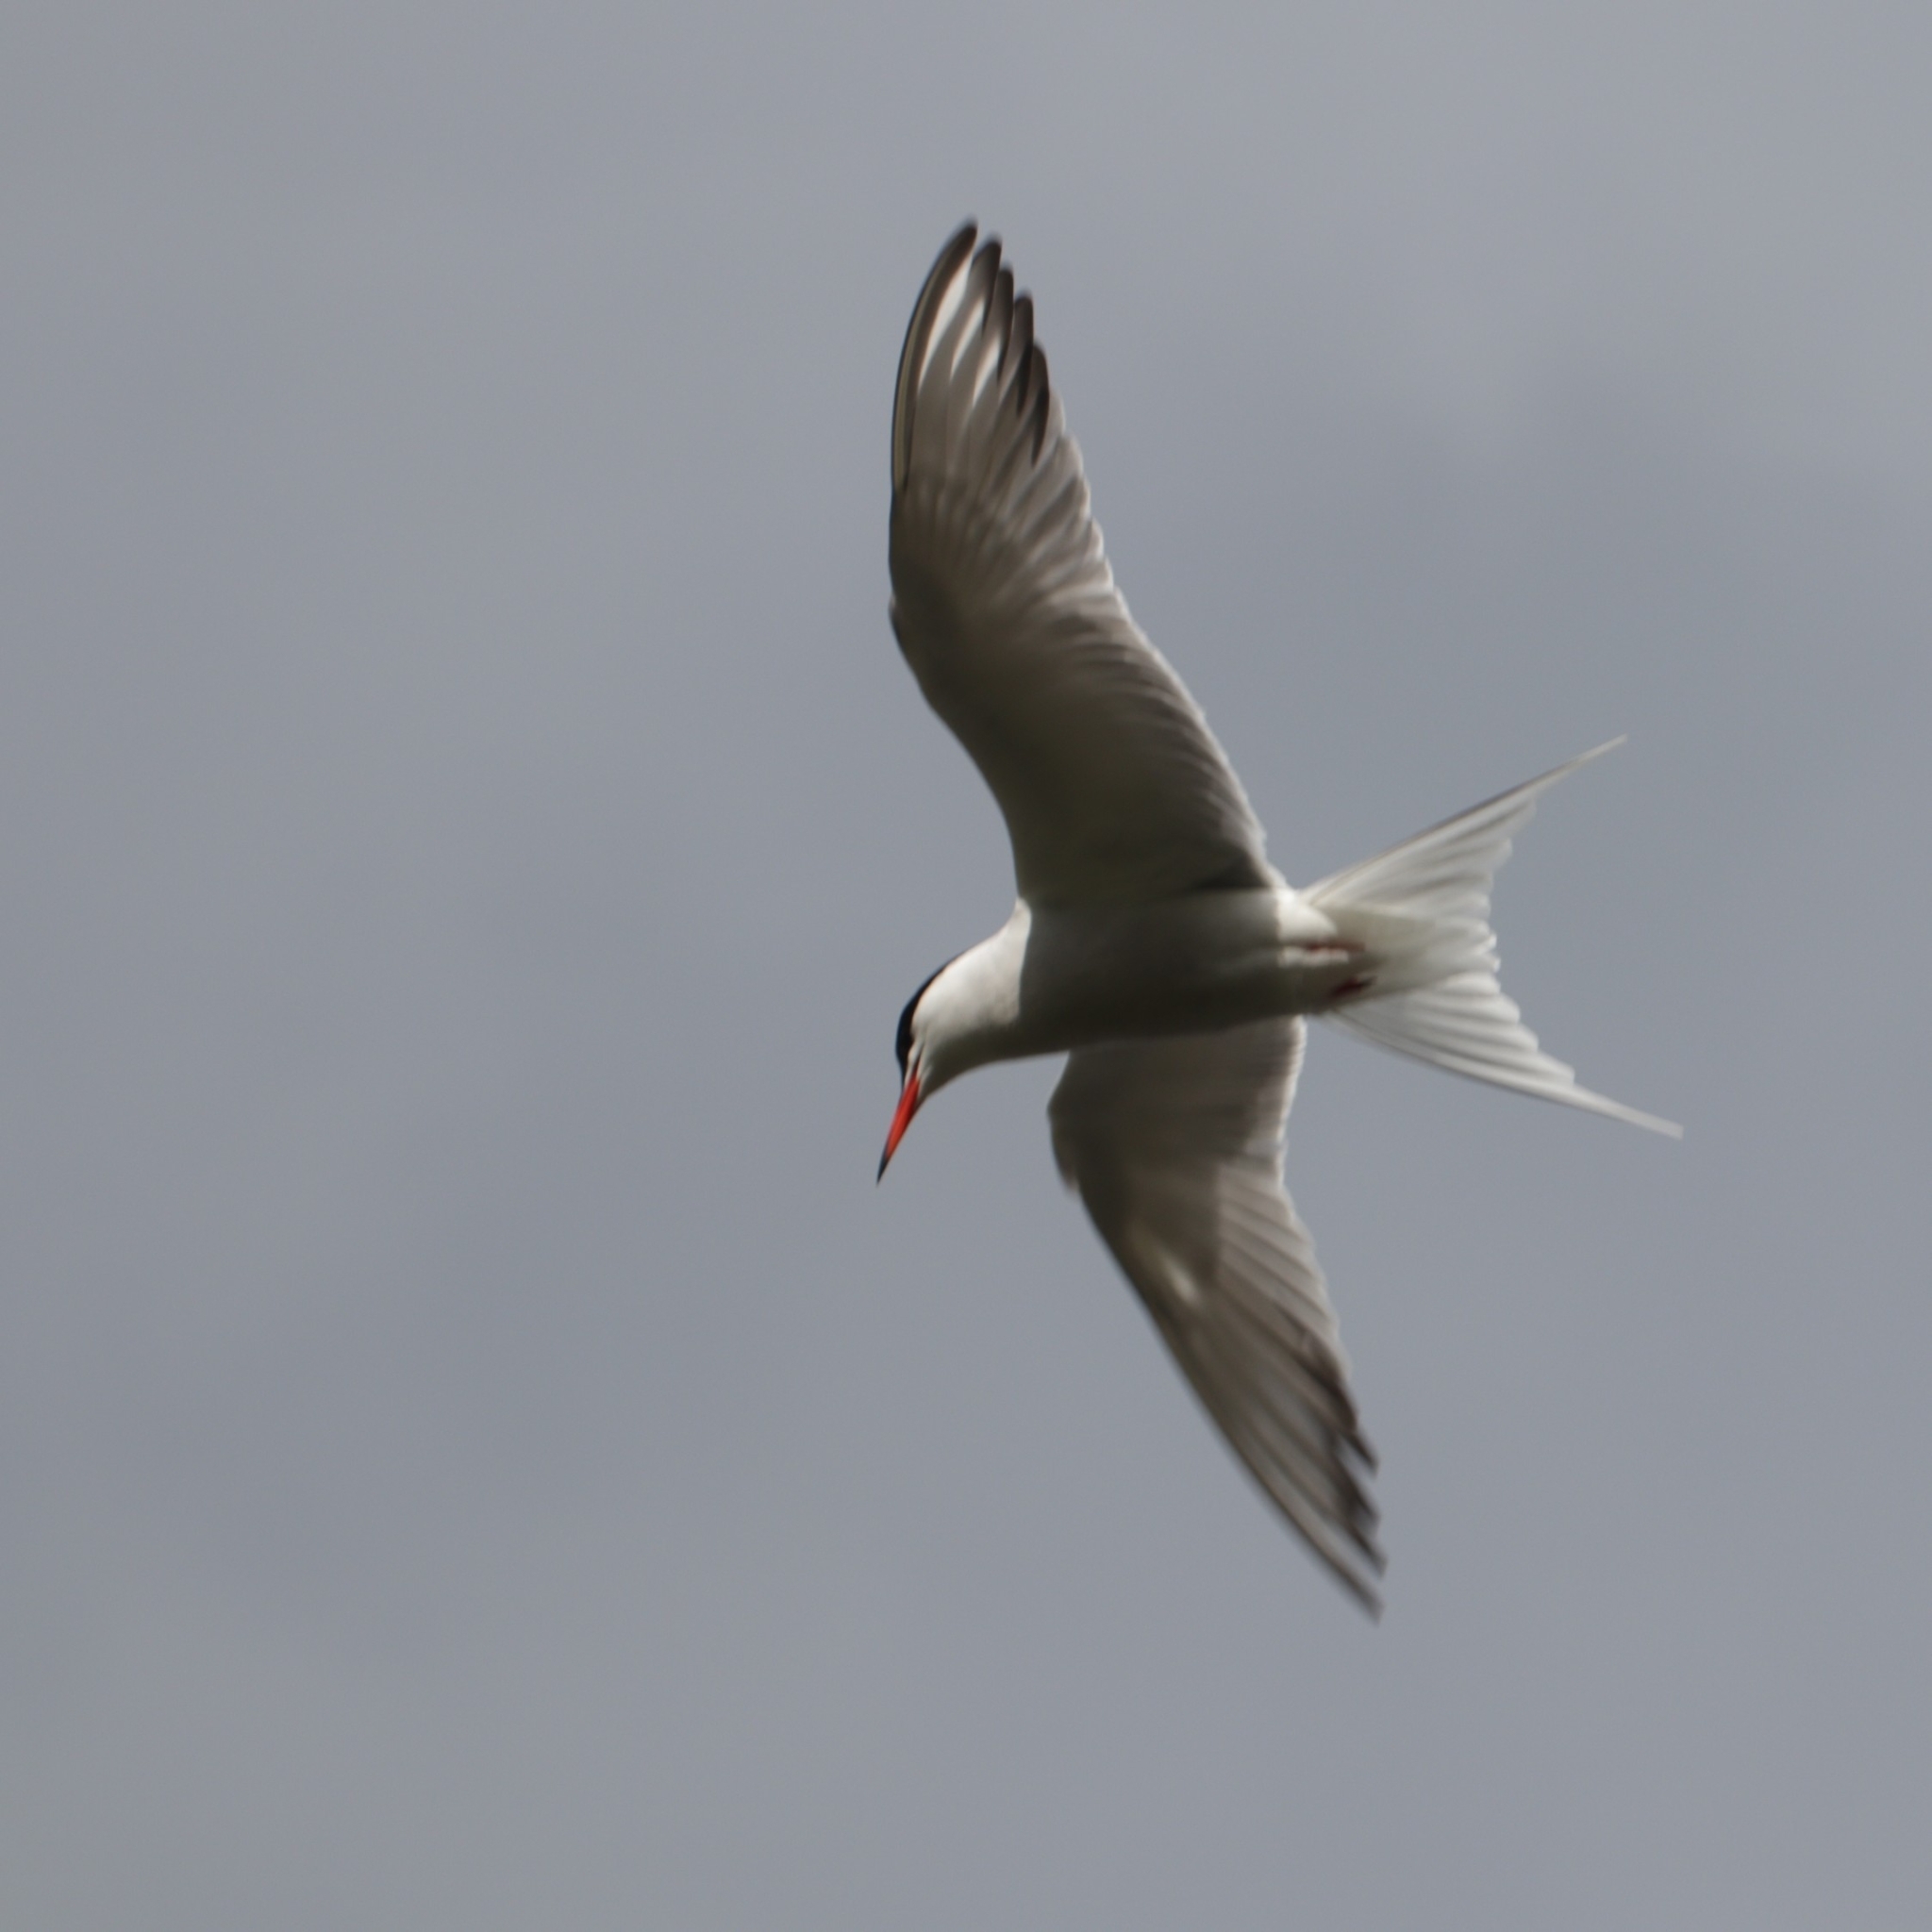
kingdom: Animalia
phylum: Chordata
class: Aves
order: Charadriiformes
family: Laridae
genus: Sterna
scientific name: Sterna hirundo
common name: Common tern
